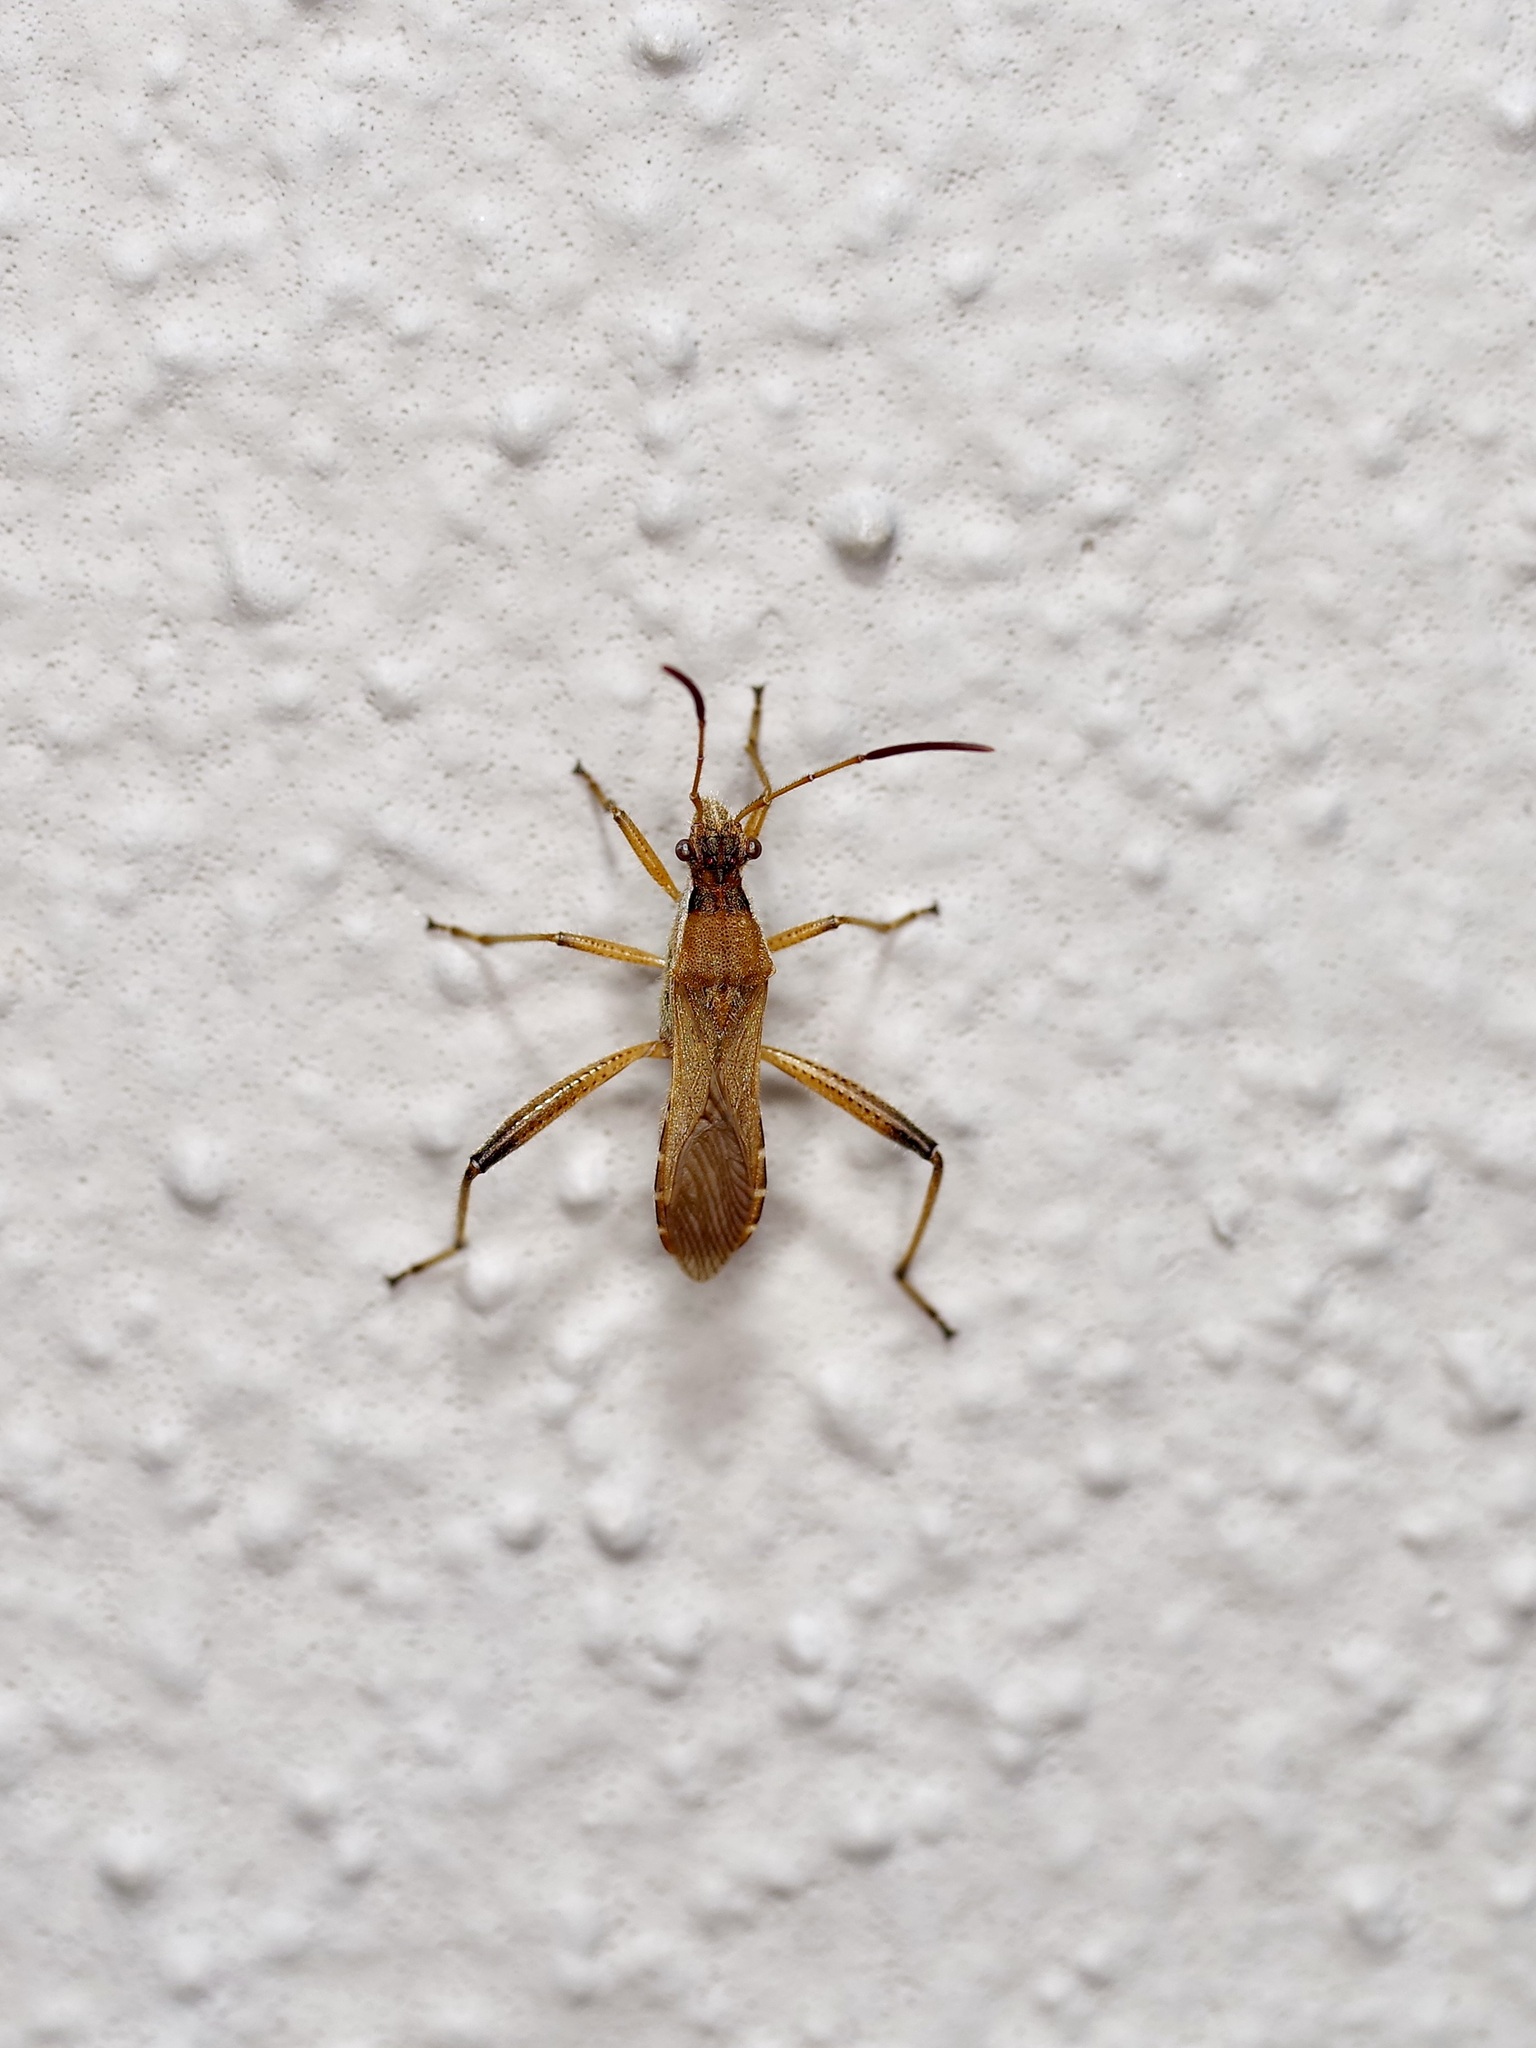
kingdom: Animalia
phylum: Arthropoda
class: Insecta
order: Hemiptera
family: Alydidae
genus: Alydus
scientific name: Alydus pilosulus
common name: Broad-headed bug
